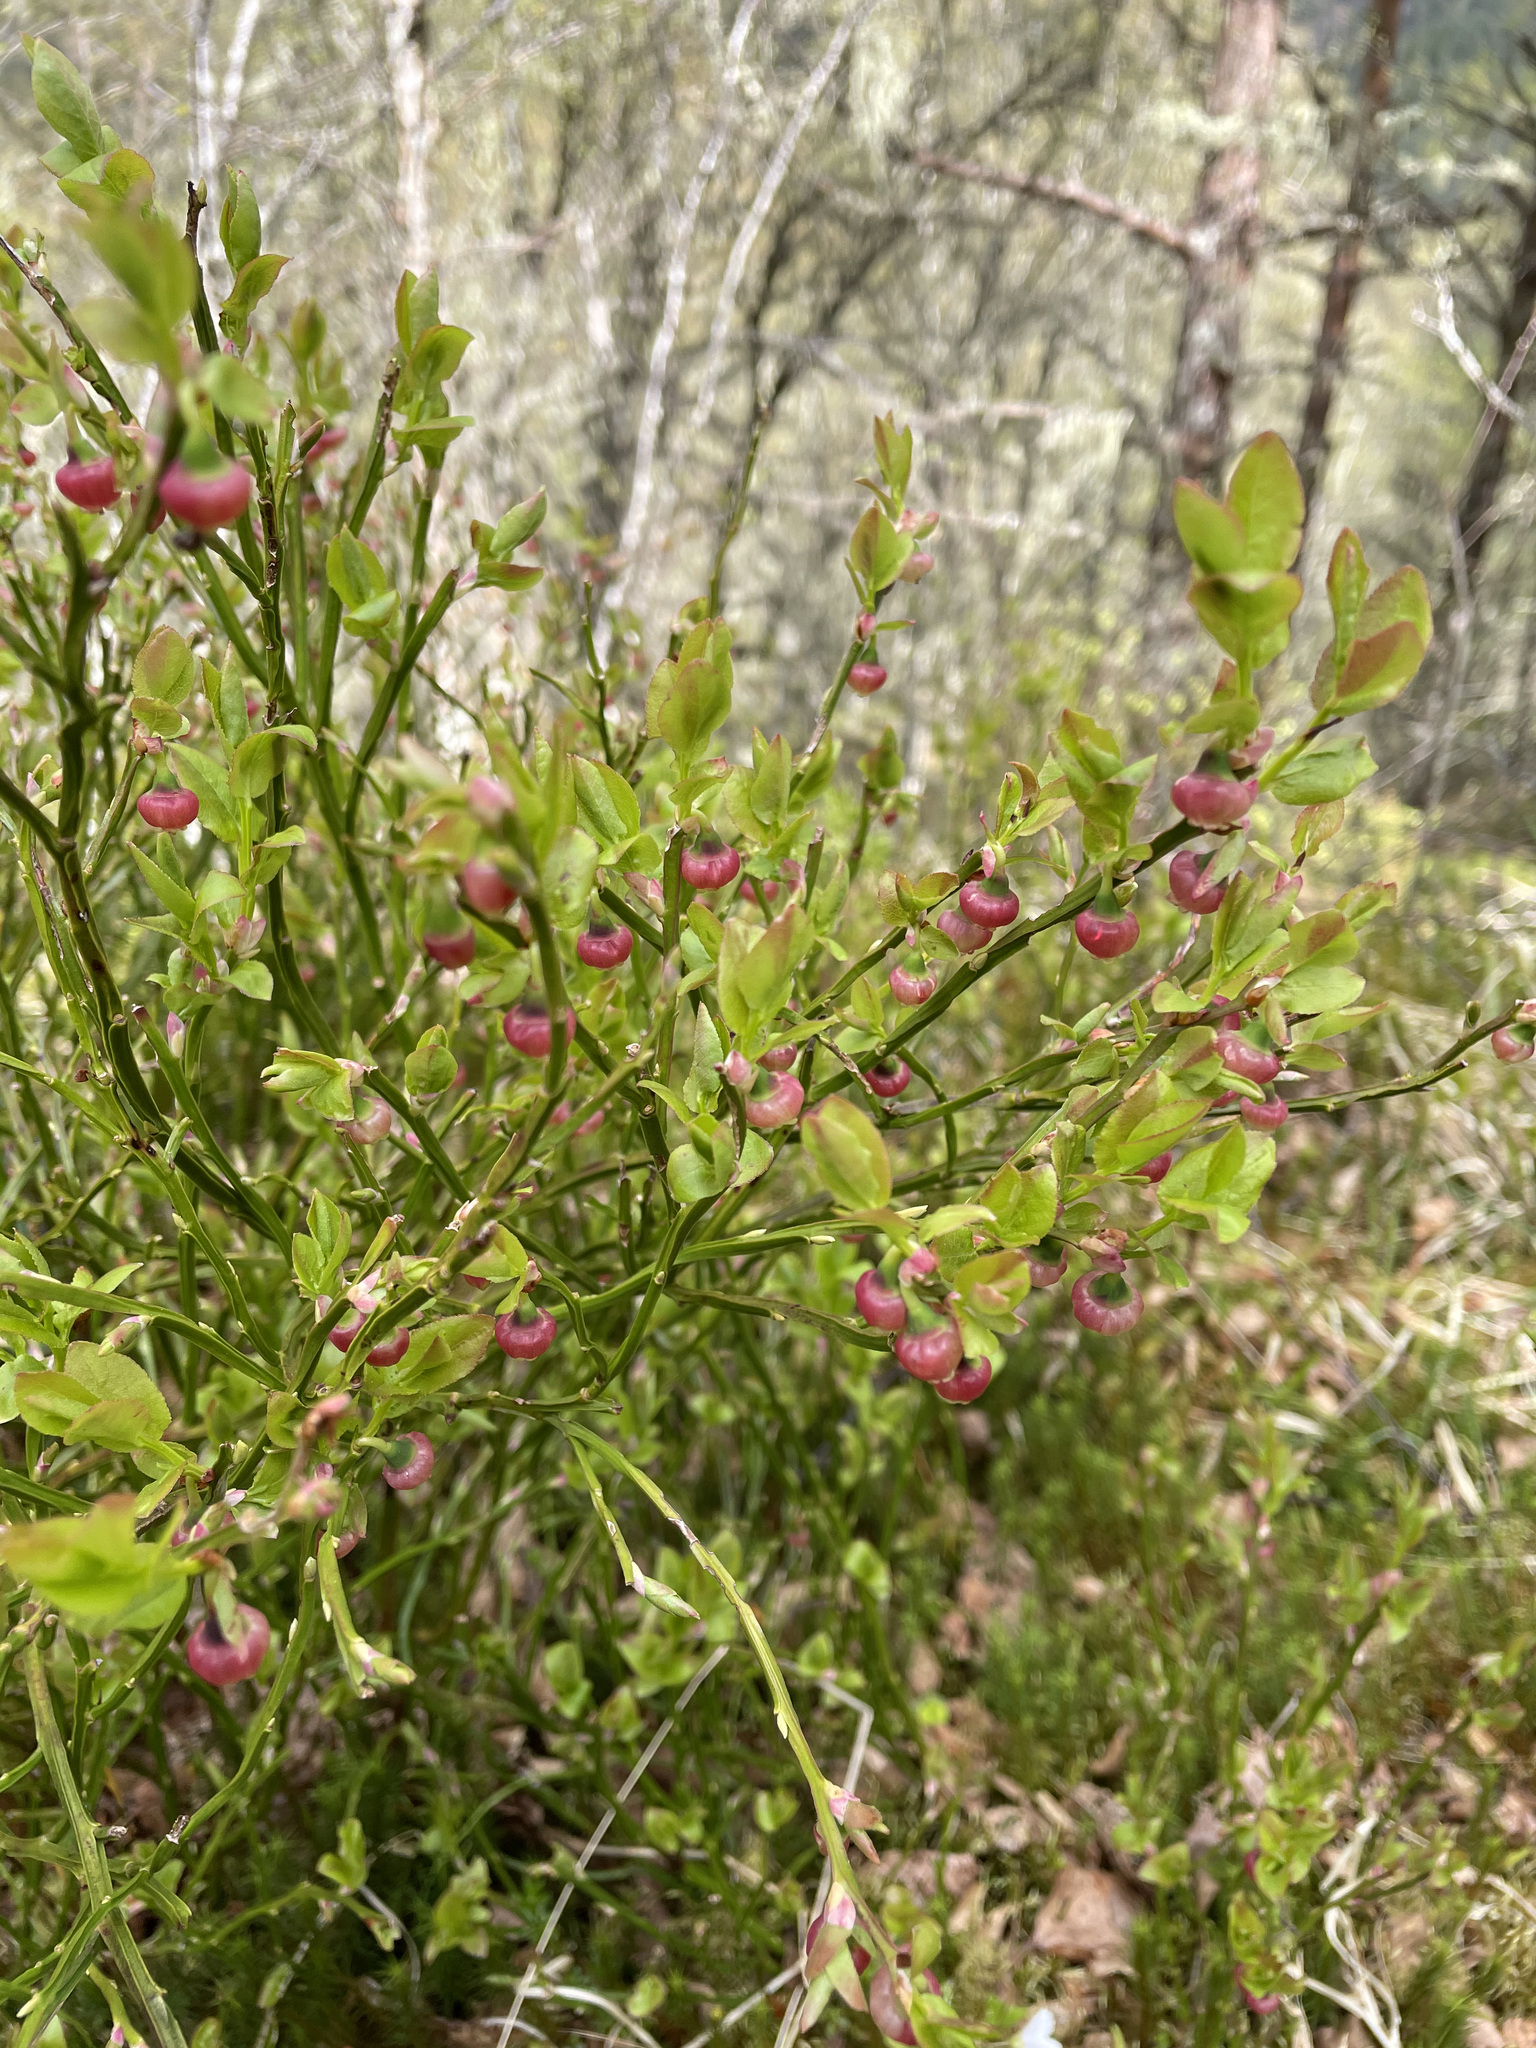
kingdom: Plantae
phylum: Tracheophyta
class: Magnoliopsida
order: Ericales
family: Ericaceae
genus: Vaccinium
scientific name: Vaccinium myrtillus
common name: Bilberry
